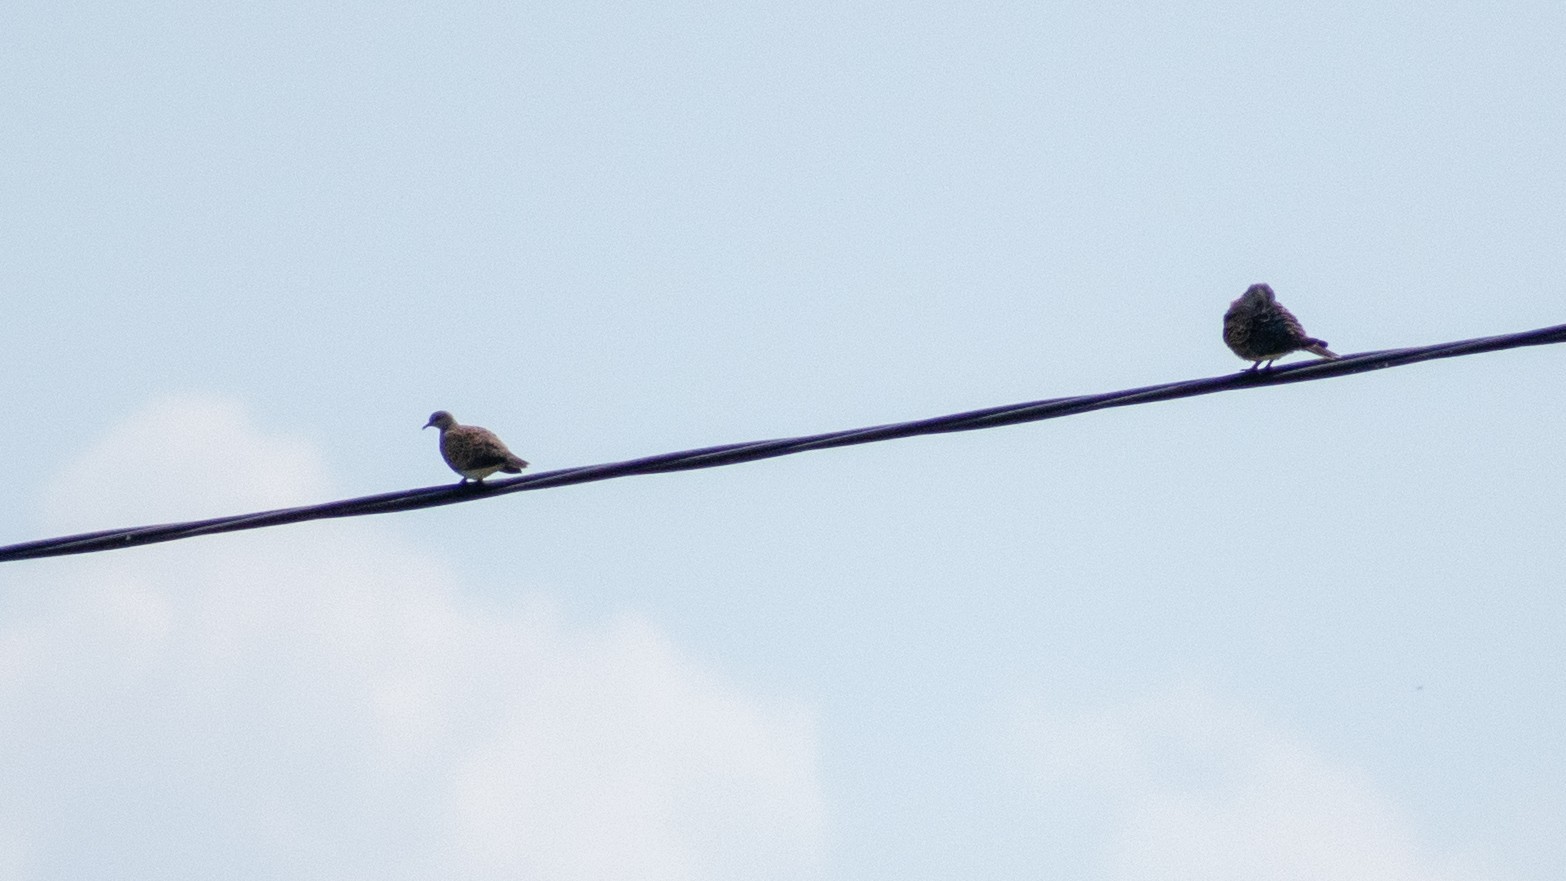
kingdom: Animalia
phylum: Chordata
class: Aves
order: Columbiformes
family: Columbidae
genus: Streptopelia
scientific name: Streptopelia turtur
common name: European turtle dove
